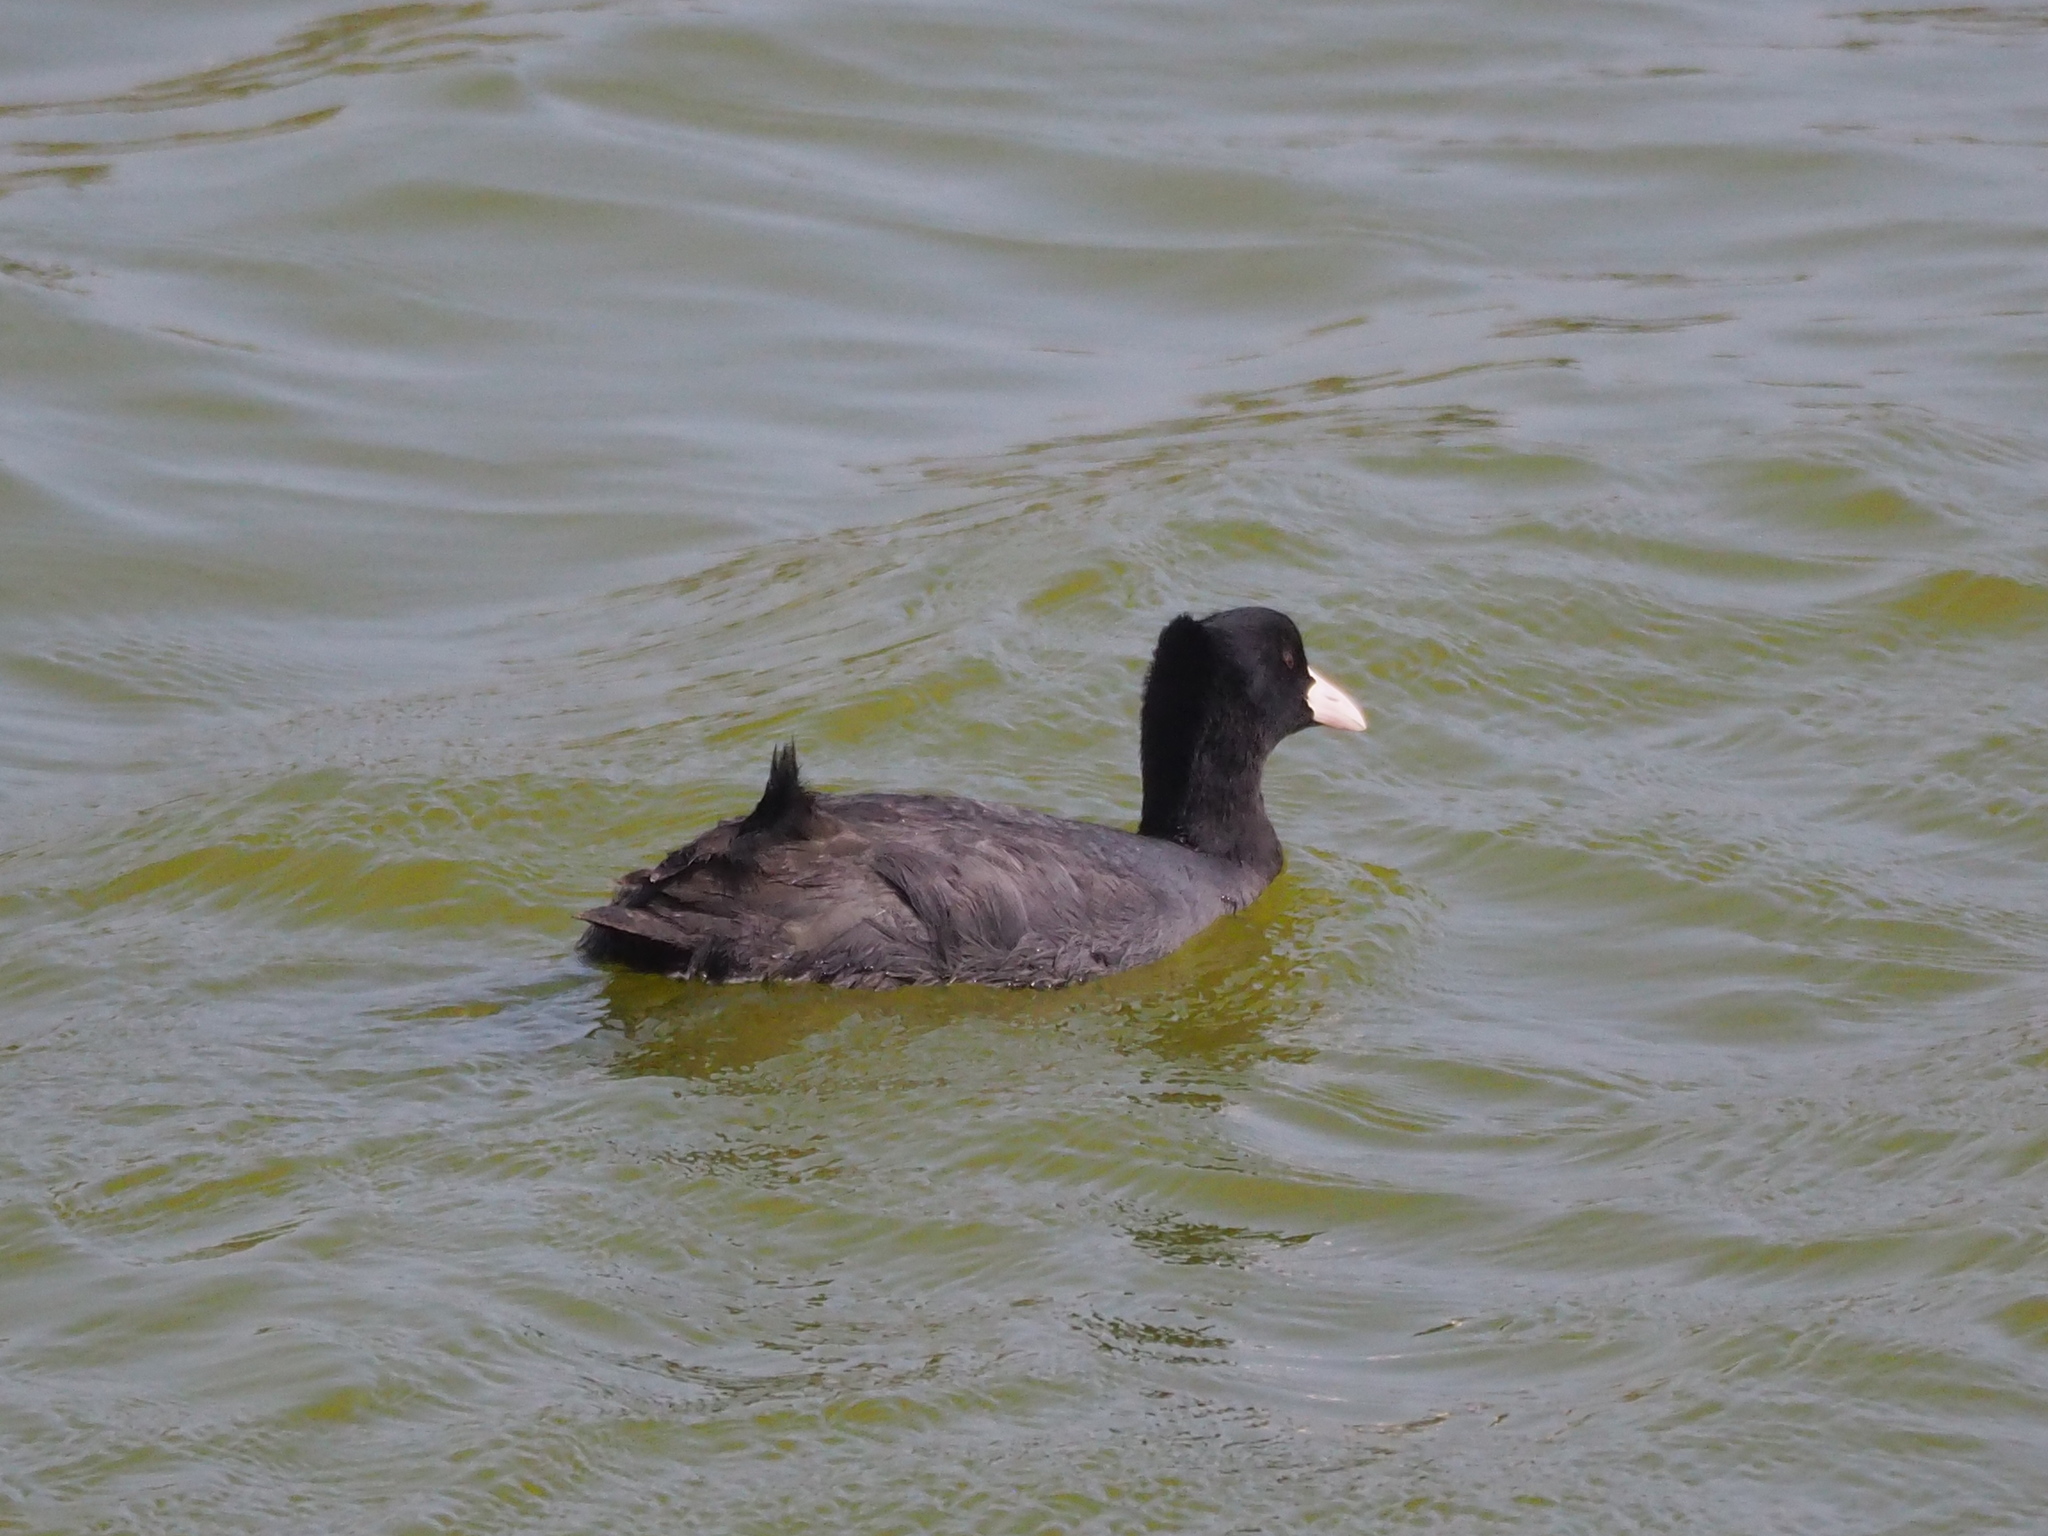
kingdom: Animalia
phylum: Chordata
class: Aves
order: Gruiformes
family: Rallidae
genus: Fulica
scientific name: Fulica atra
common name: Eurasian coot
